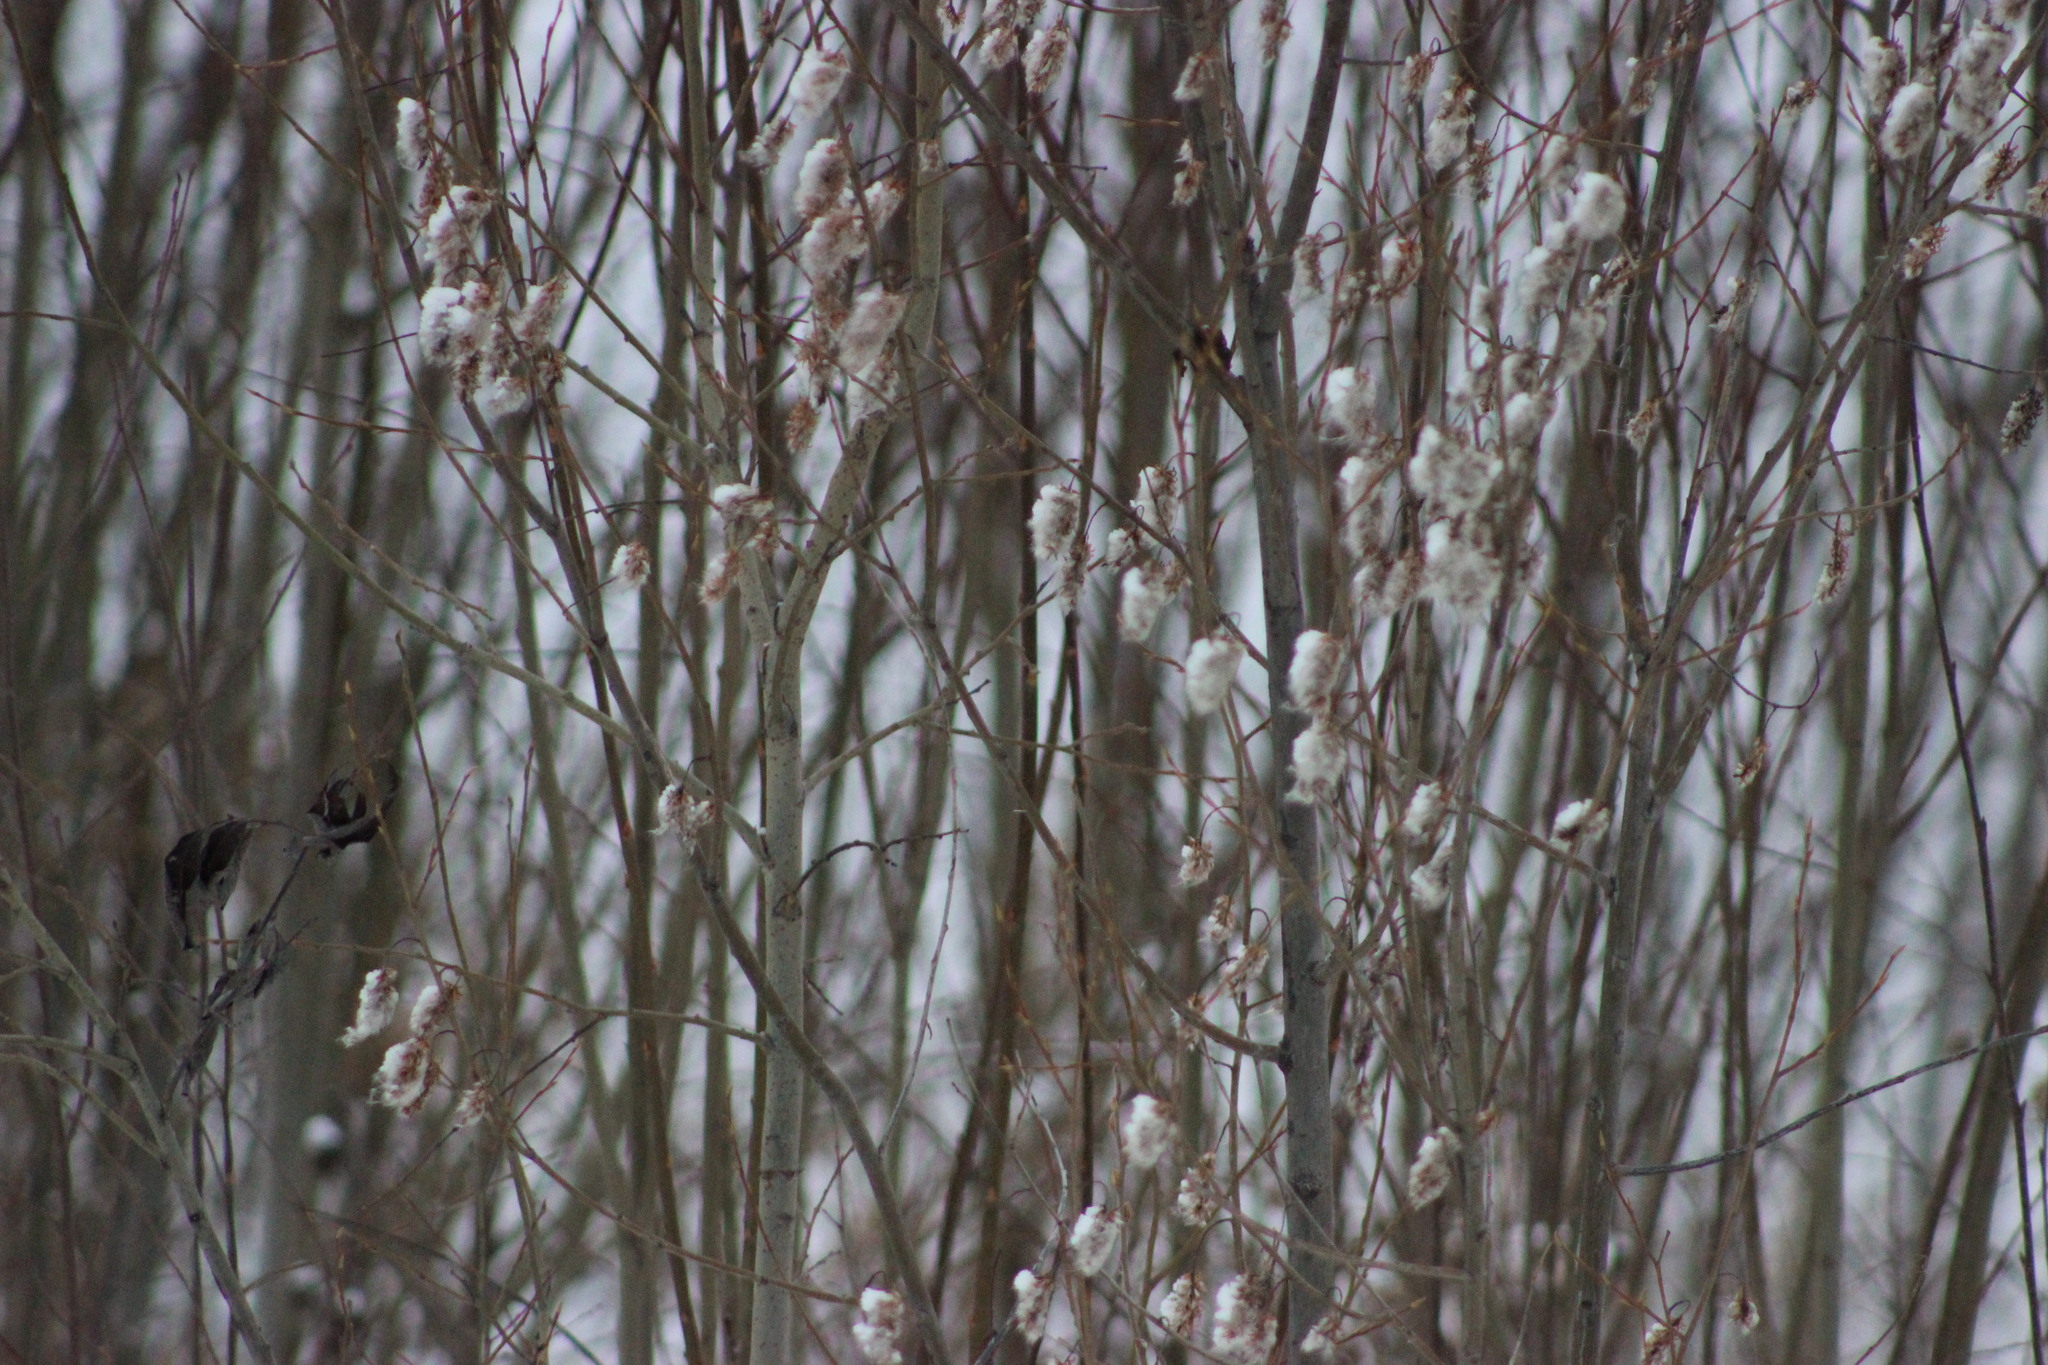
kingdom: Plantae
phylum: Tracheophyta
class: Magnoliopsida
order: Malpighiales
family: Salicaceae
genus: Salix
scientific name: Salix pentandra
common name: Bay willow
